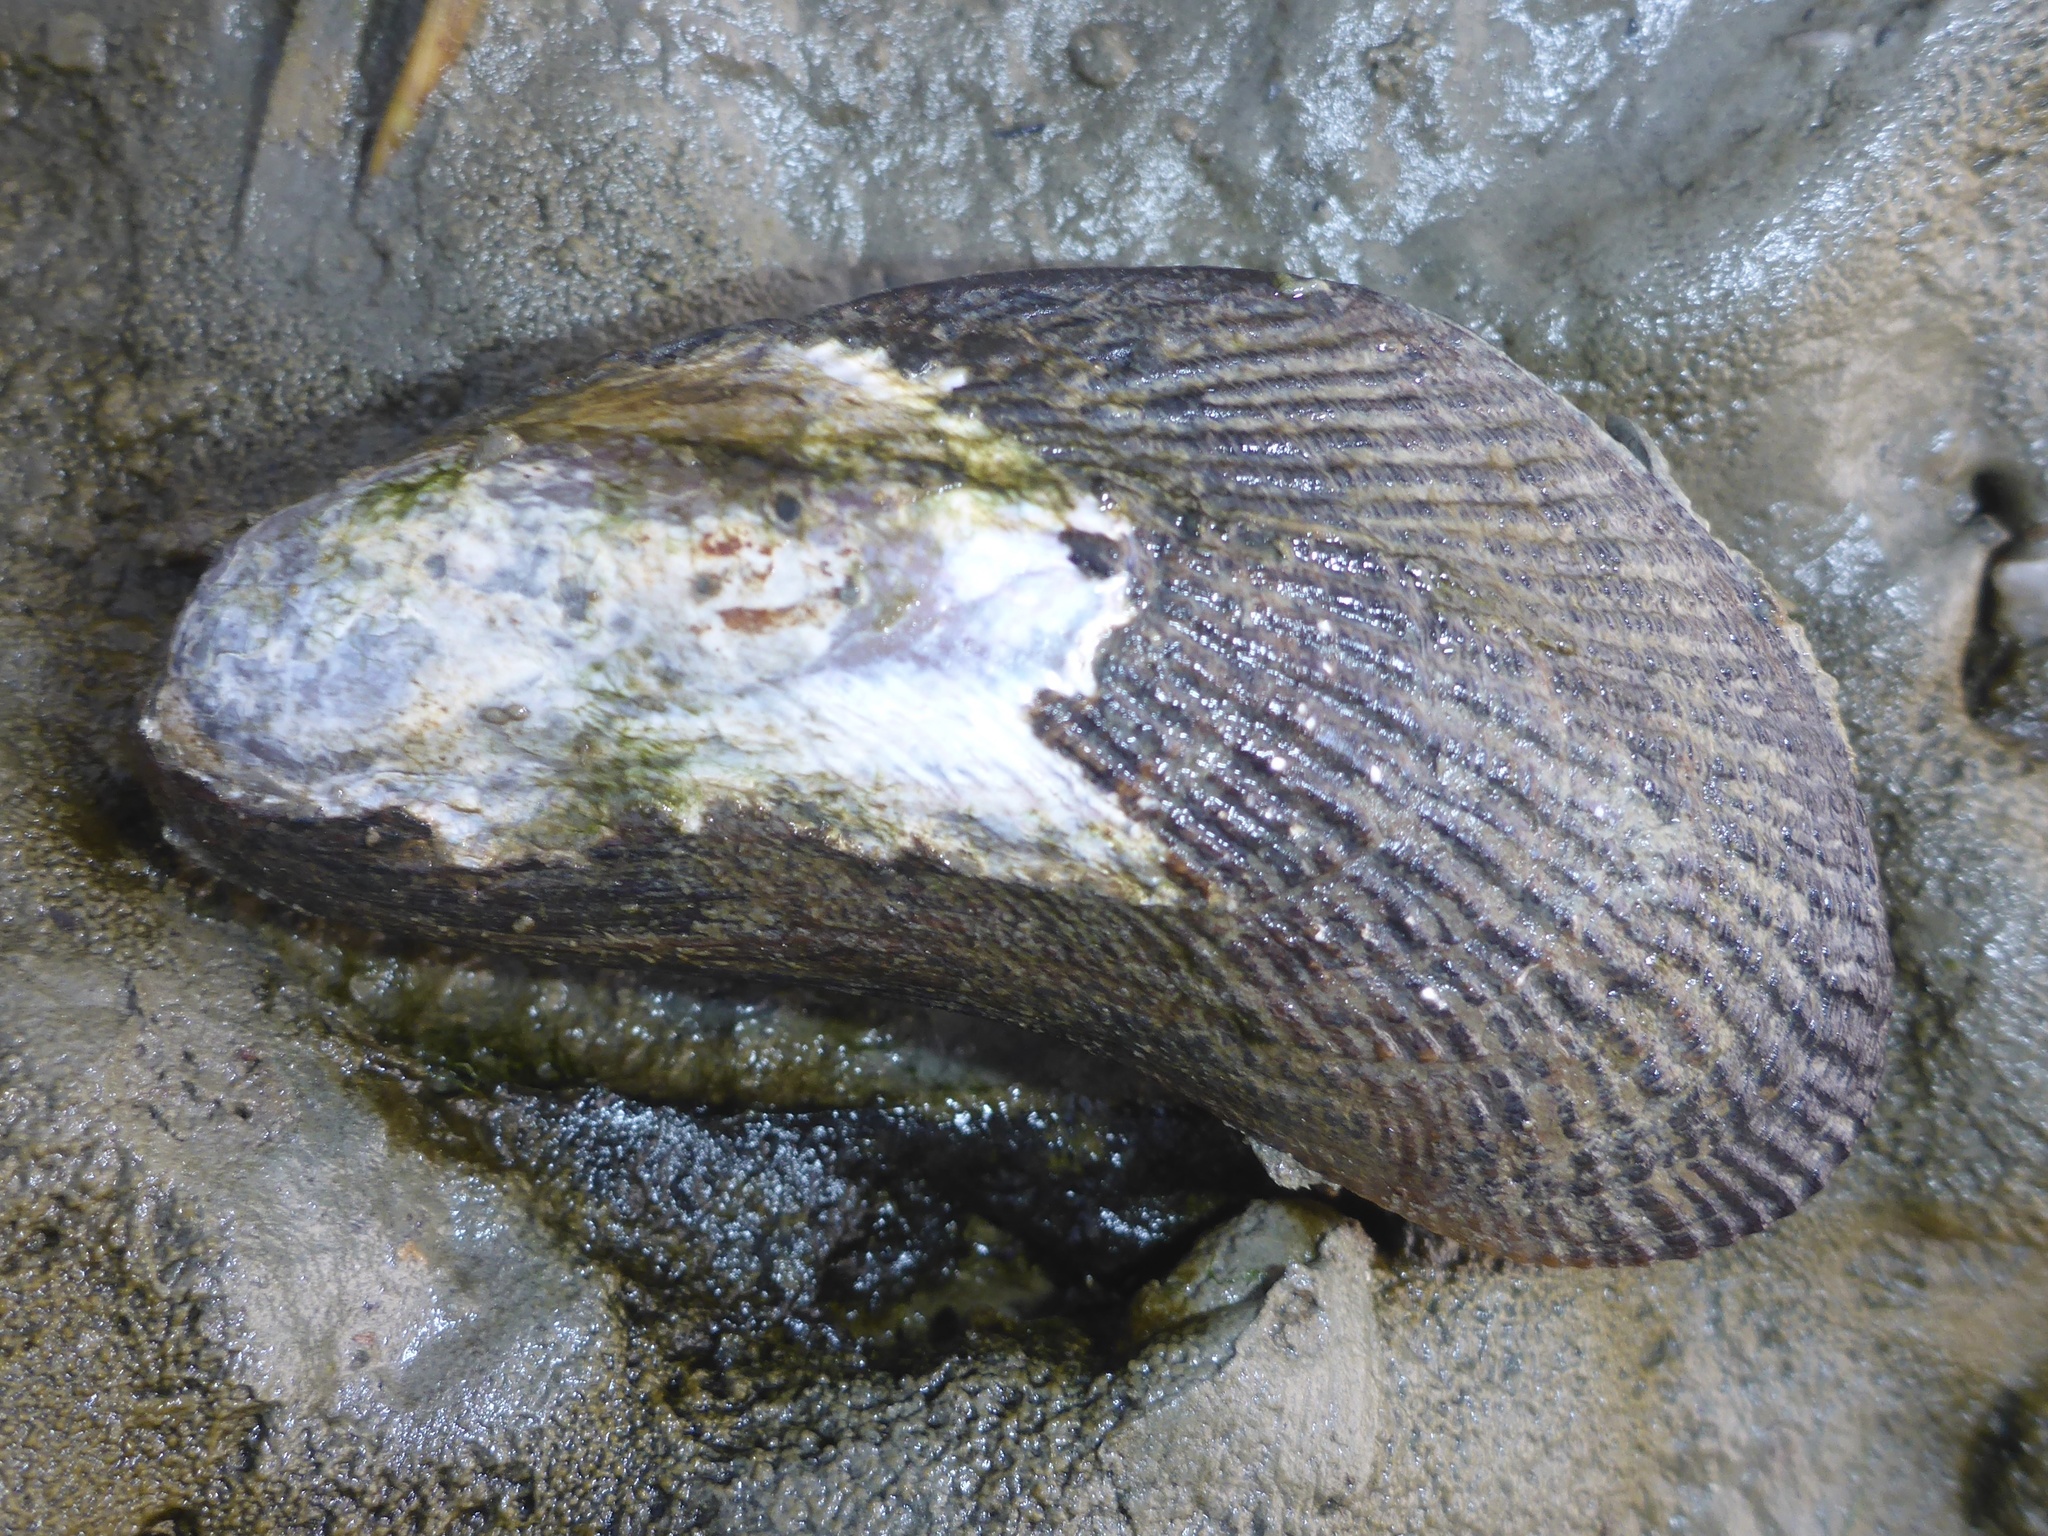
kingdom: Animalia
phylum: Mollusca
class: Bivalvia
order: Mytilida
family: Mytilidae
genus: Geukensia
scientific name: Geukensia demissa
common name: Ribbed mussel
